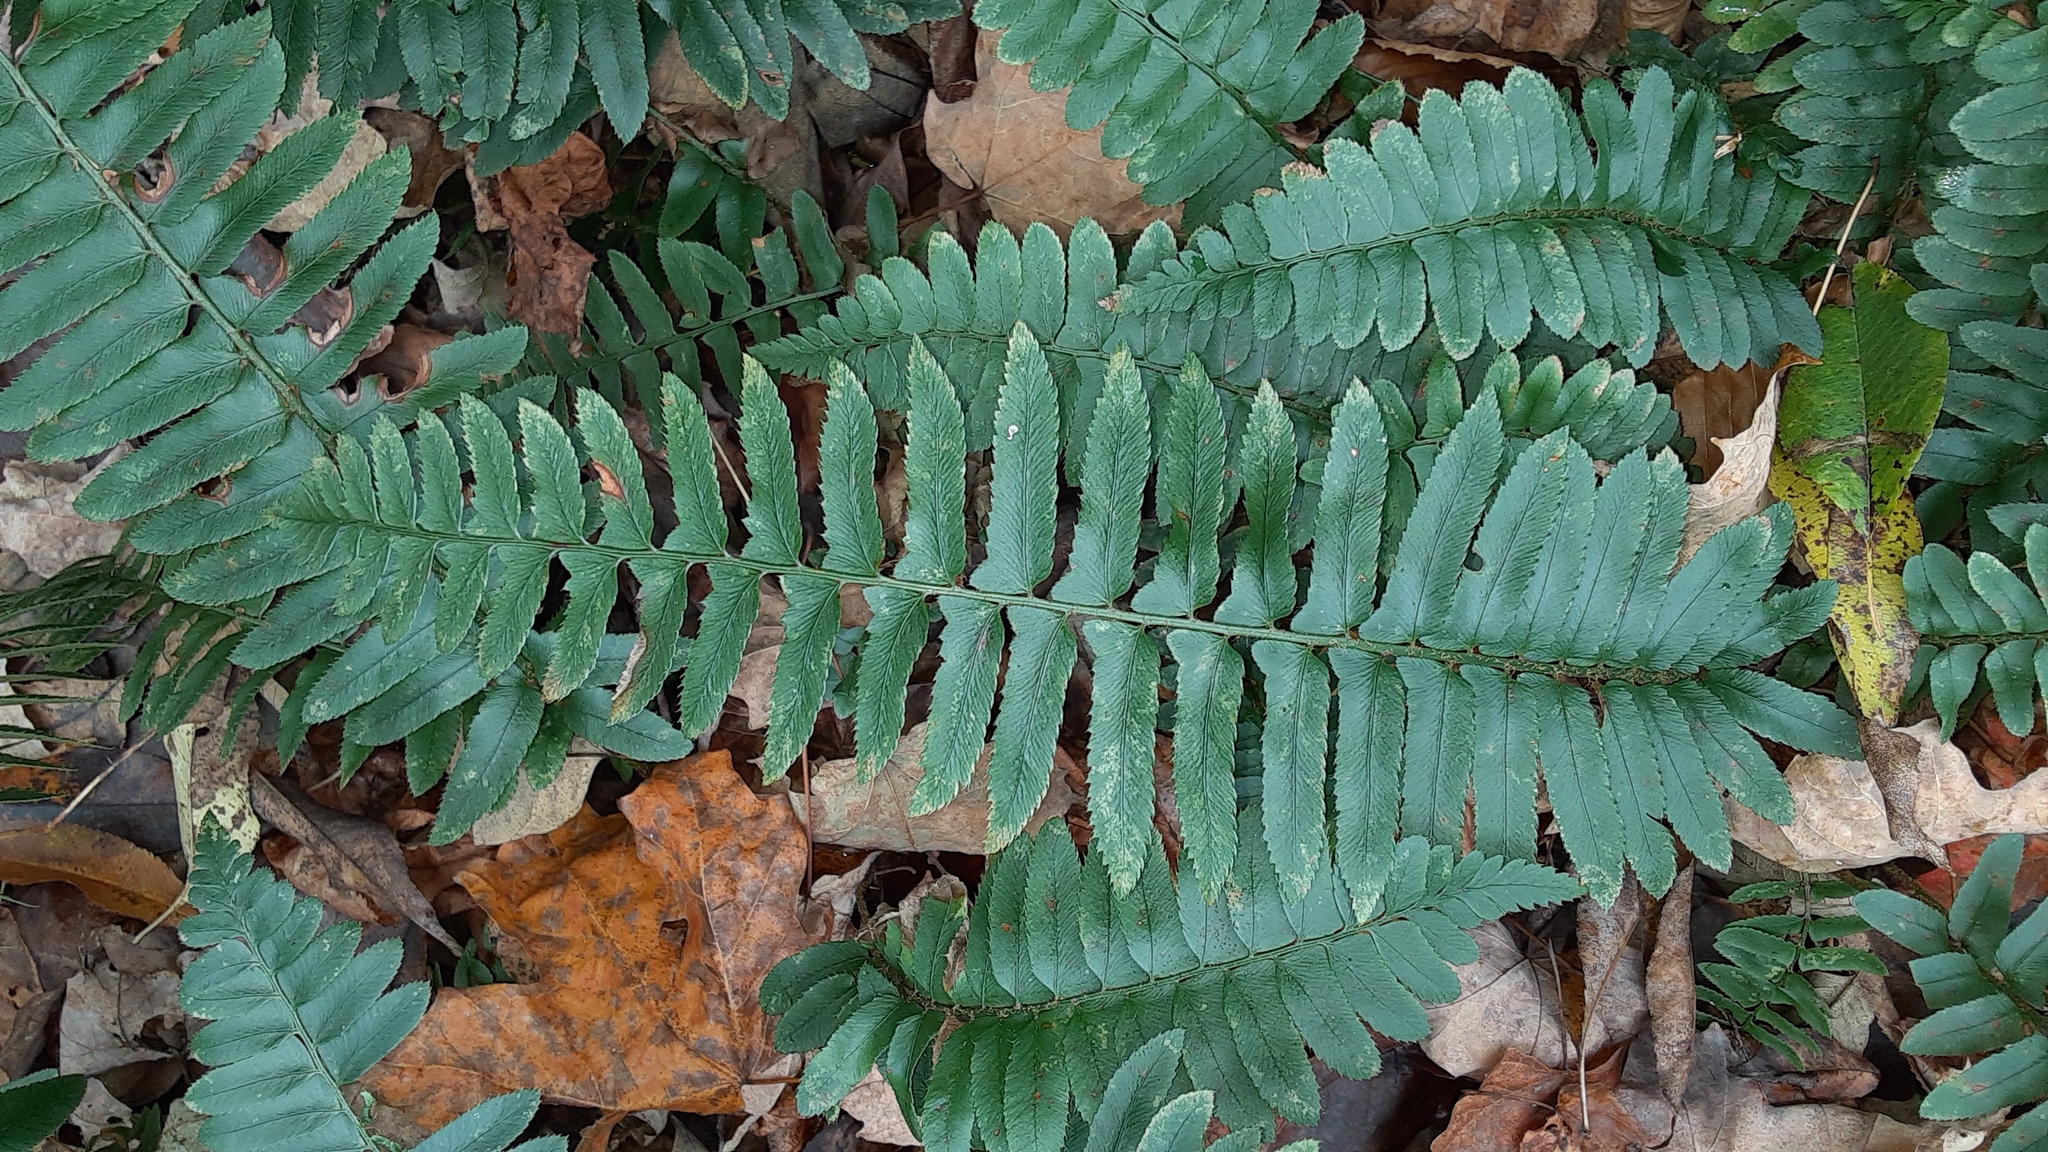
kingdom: Plantae
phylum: Tracheophyta
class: Polypodiopsida
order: Polypodiales
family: Dryopteridaceae
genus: Polystichum
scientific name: Polystichum acrostichoides
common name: Christmas fern
